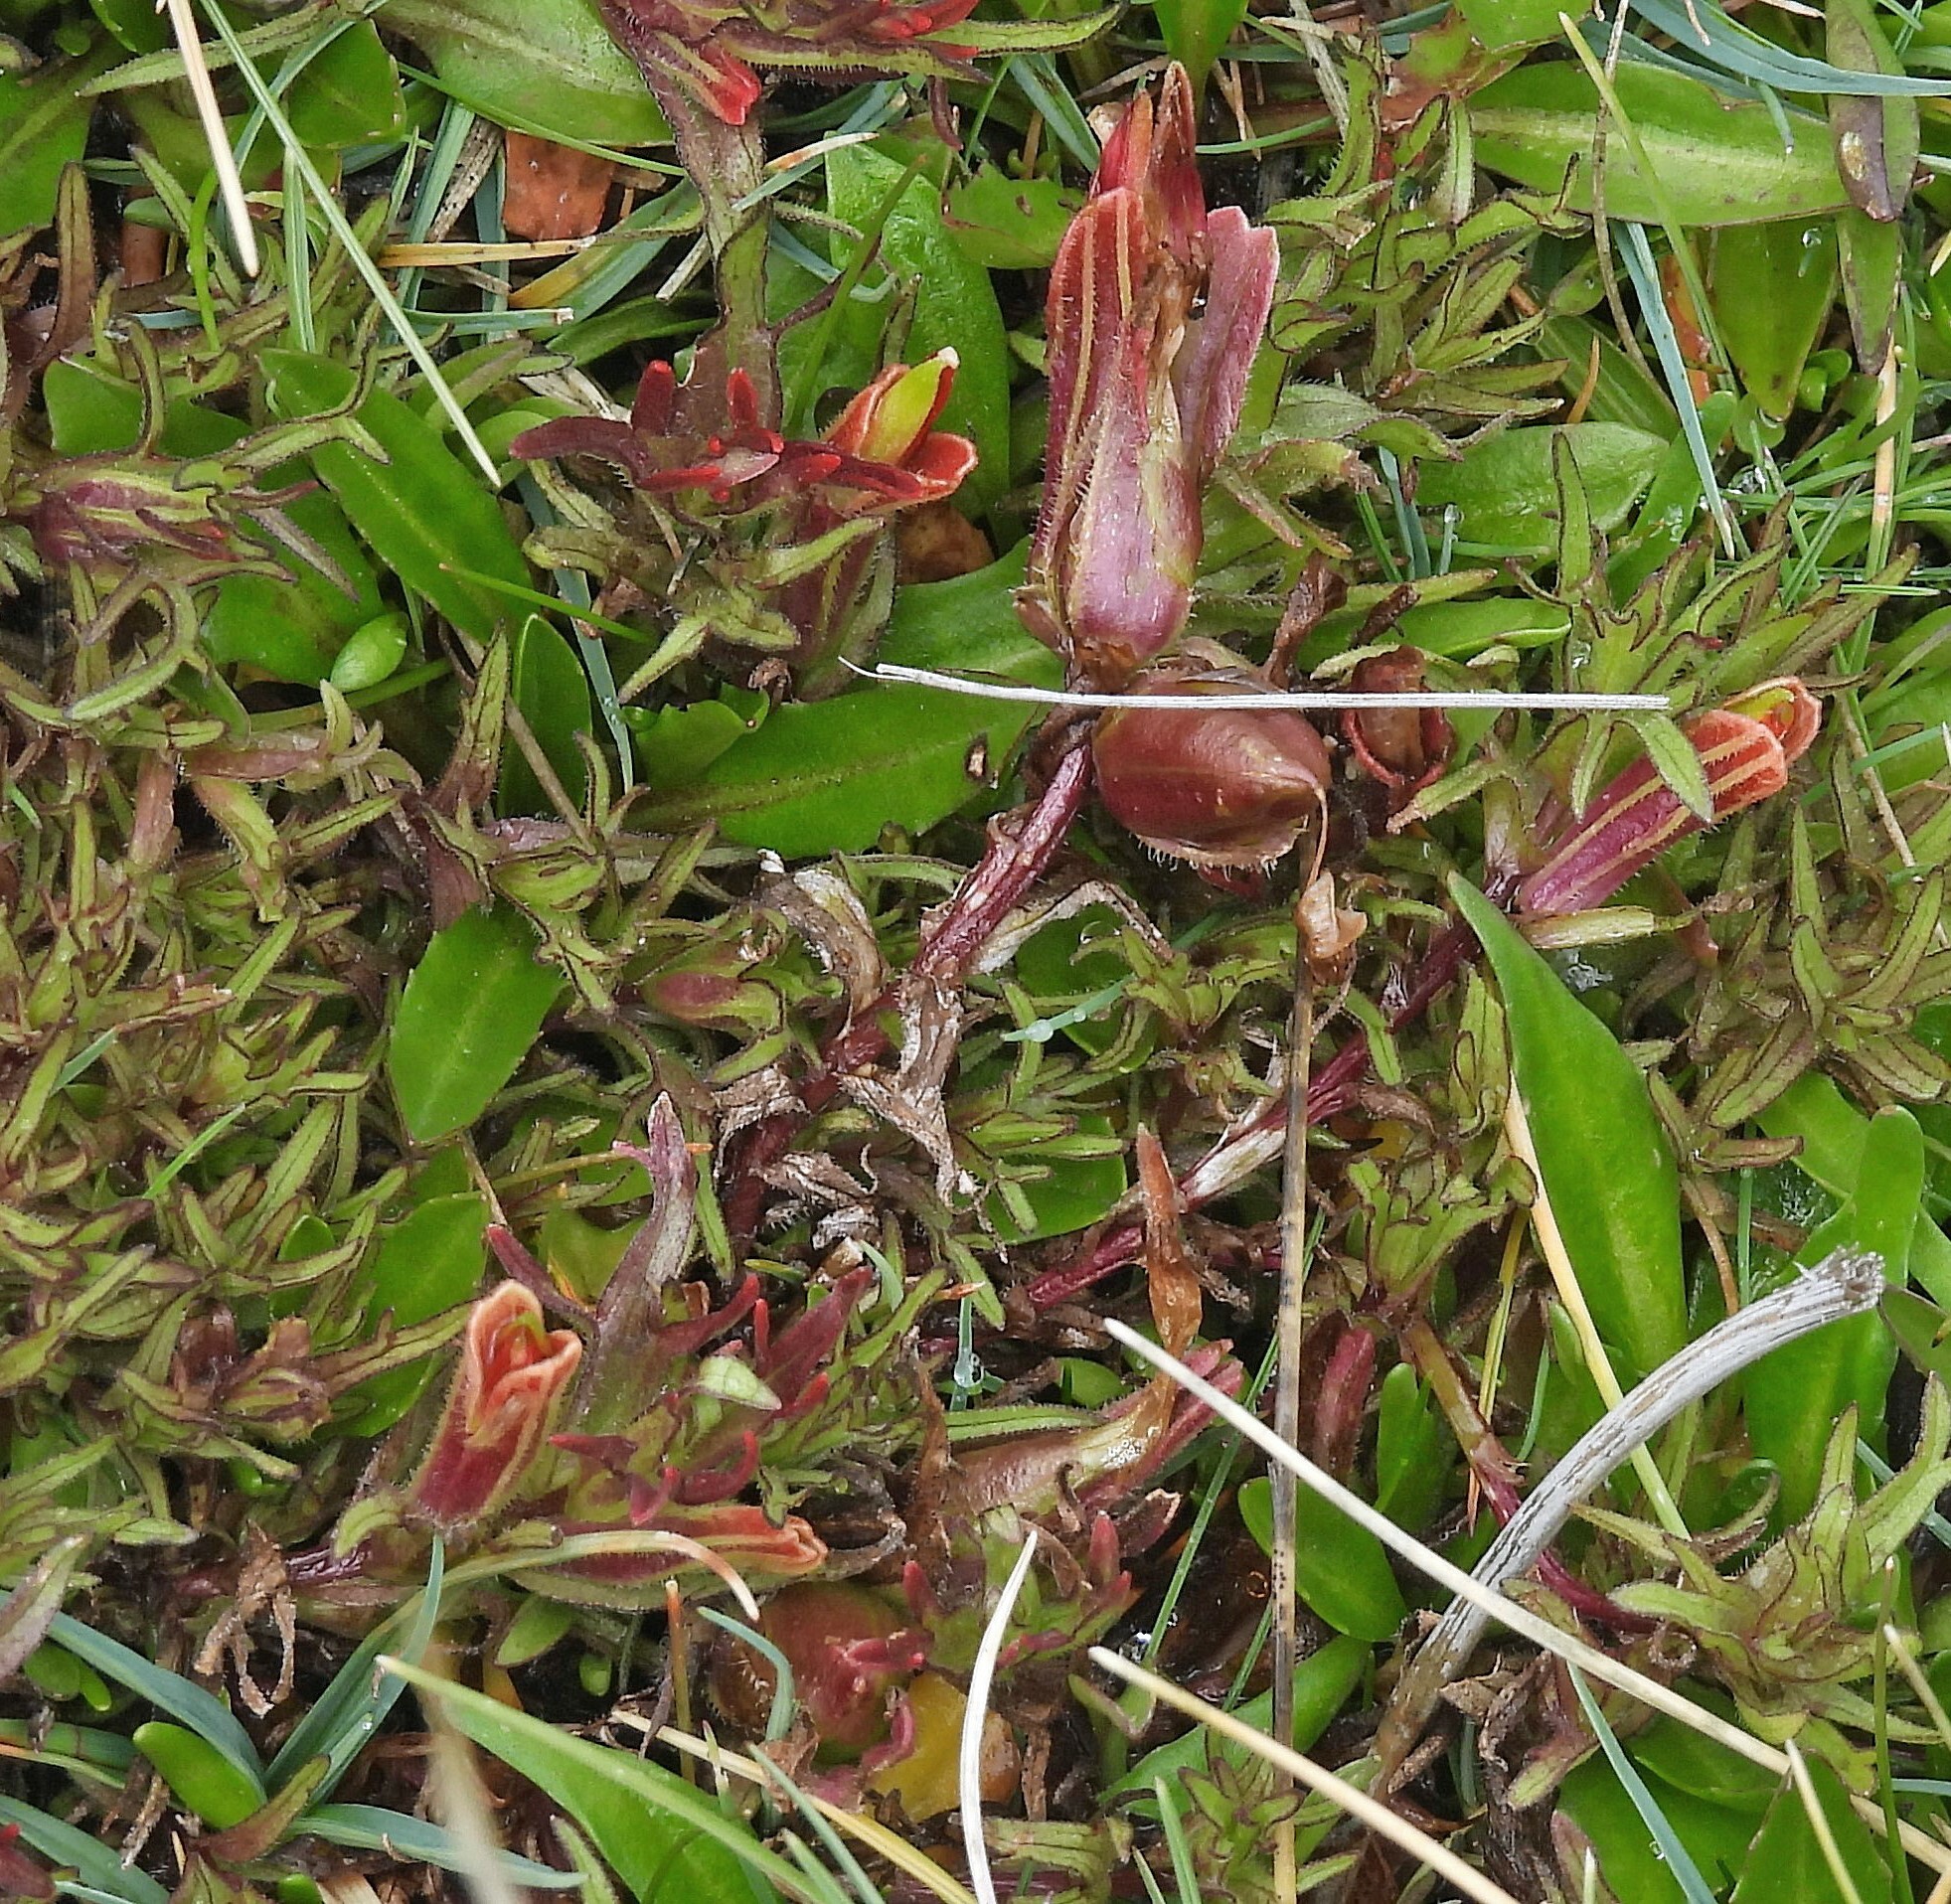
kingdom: Plantae
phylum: Tracheophyta
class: Magnoliopsida
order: Lamiales
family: Orobanchaceae
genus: Castilleja
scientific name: Castilleja pumila
